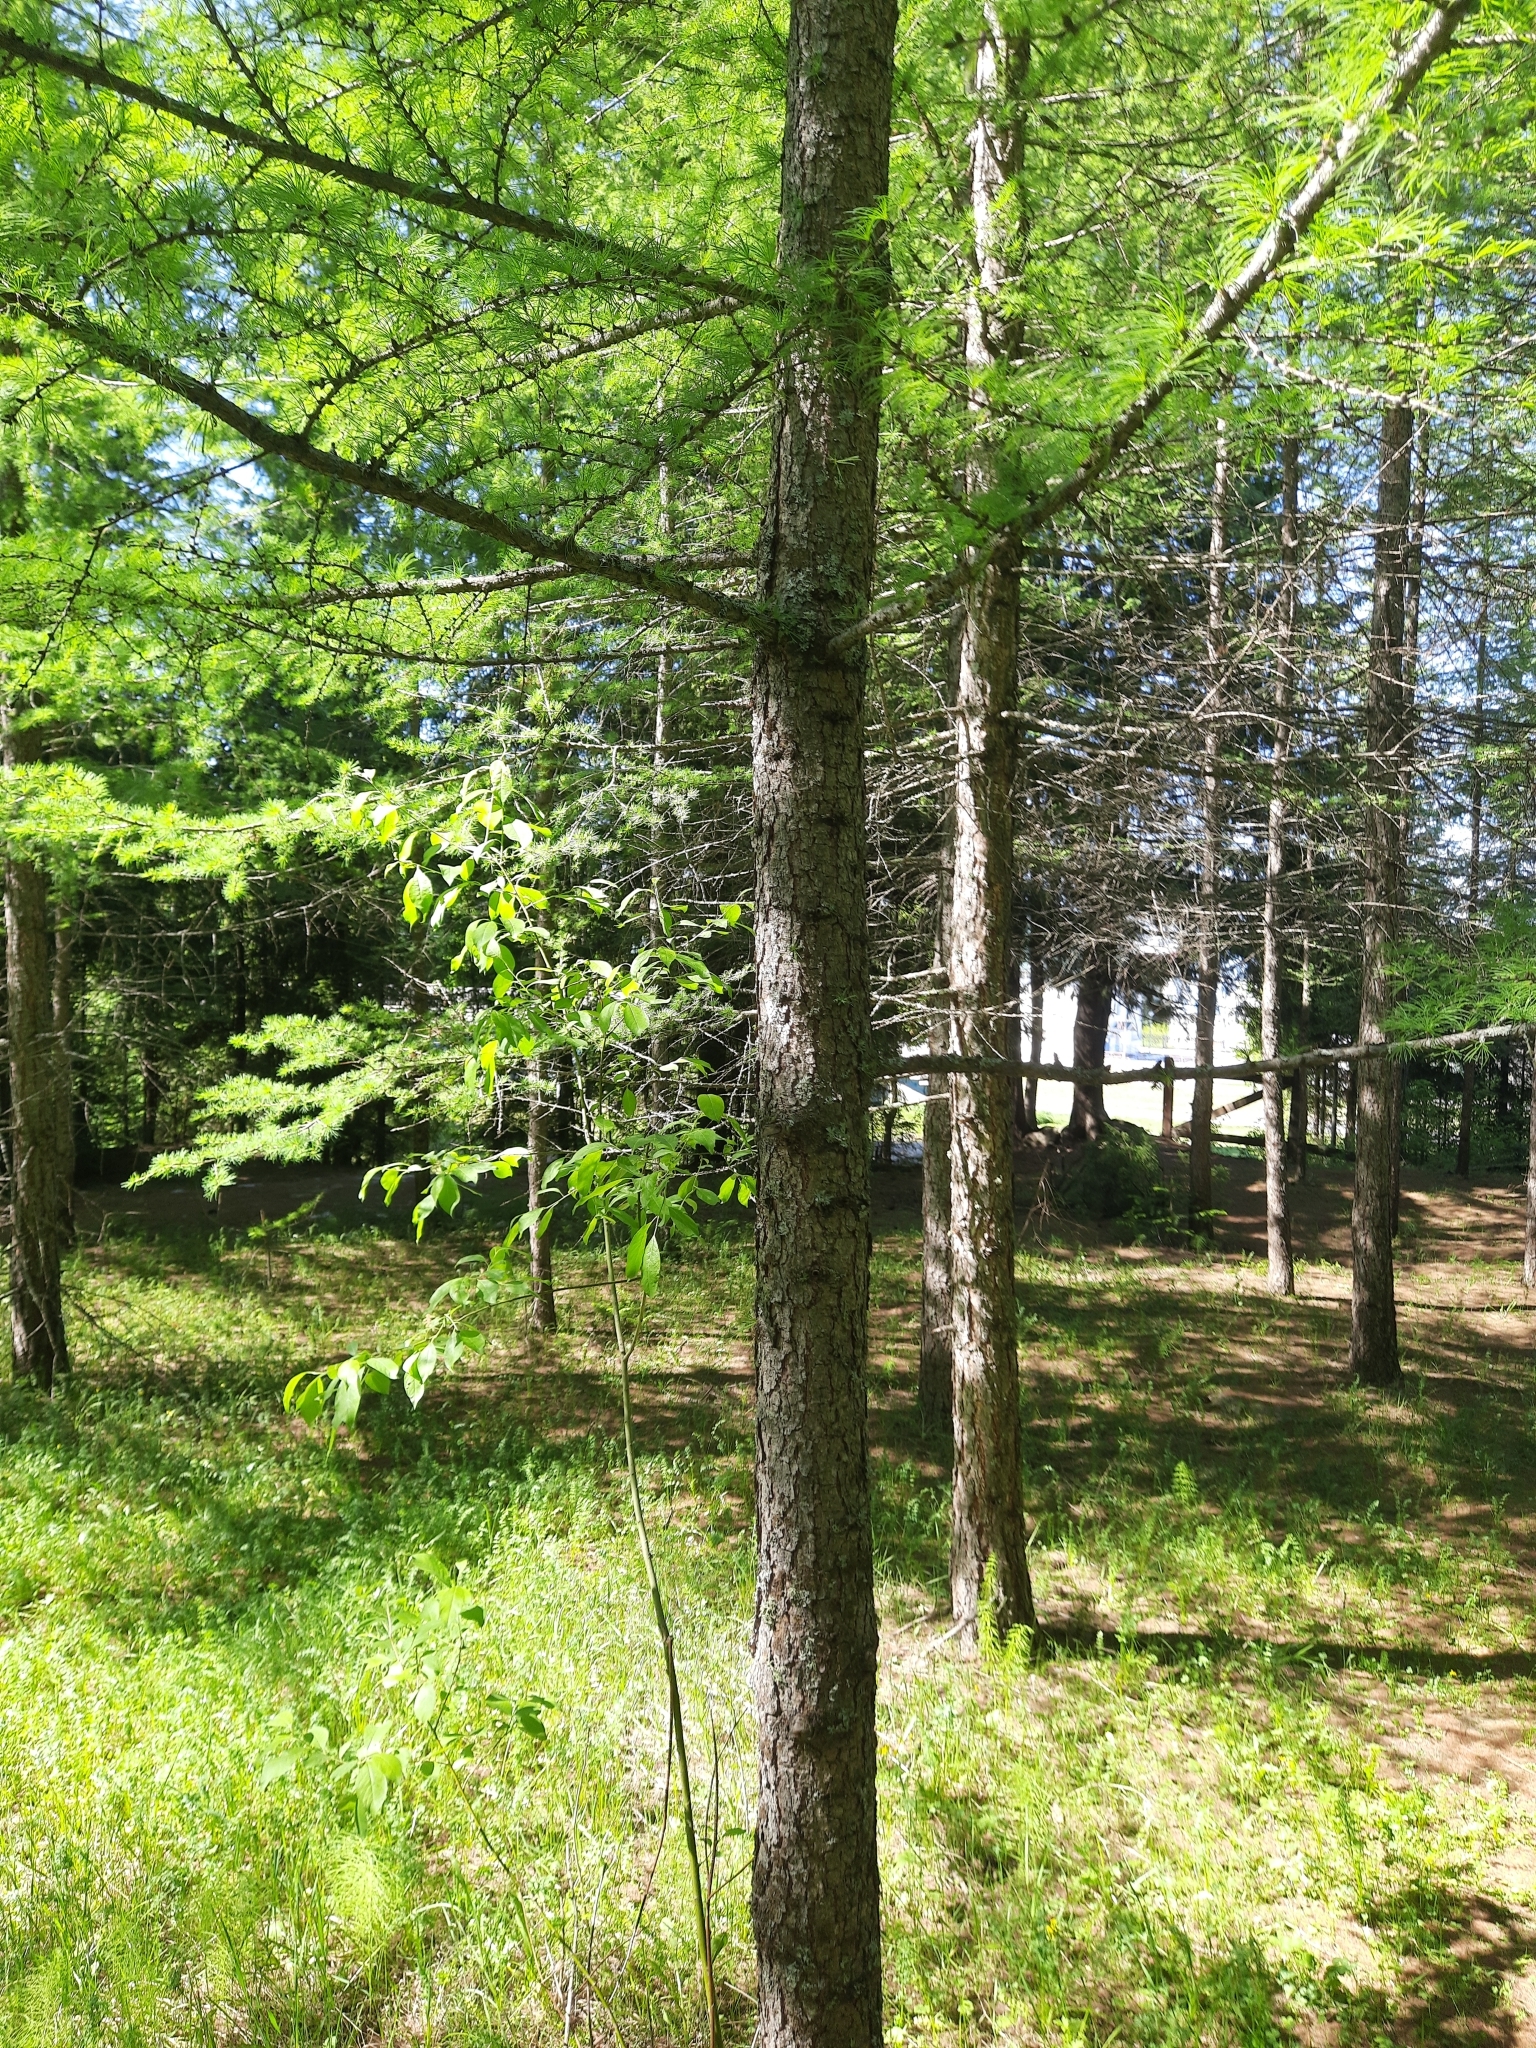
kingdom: Plantae
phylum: Tracheophyta
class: Pinopsida
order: Pinales
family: Pinaceae
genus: Larix
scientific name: Larix sibirica
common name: Siberian larch
